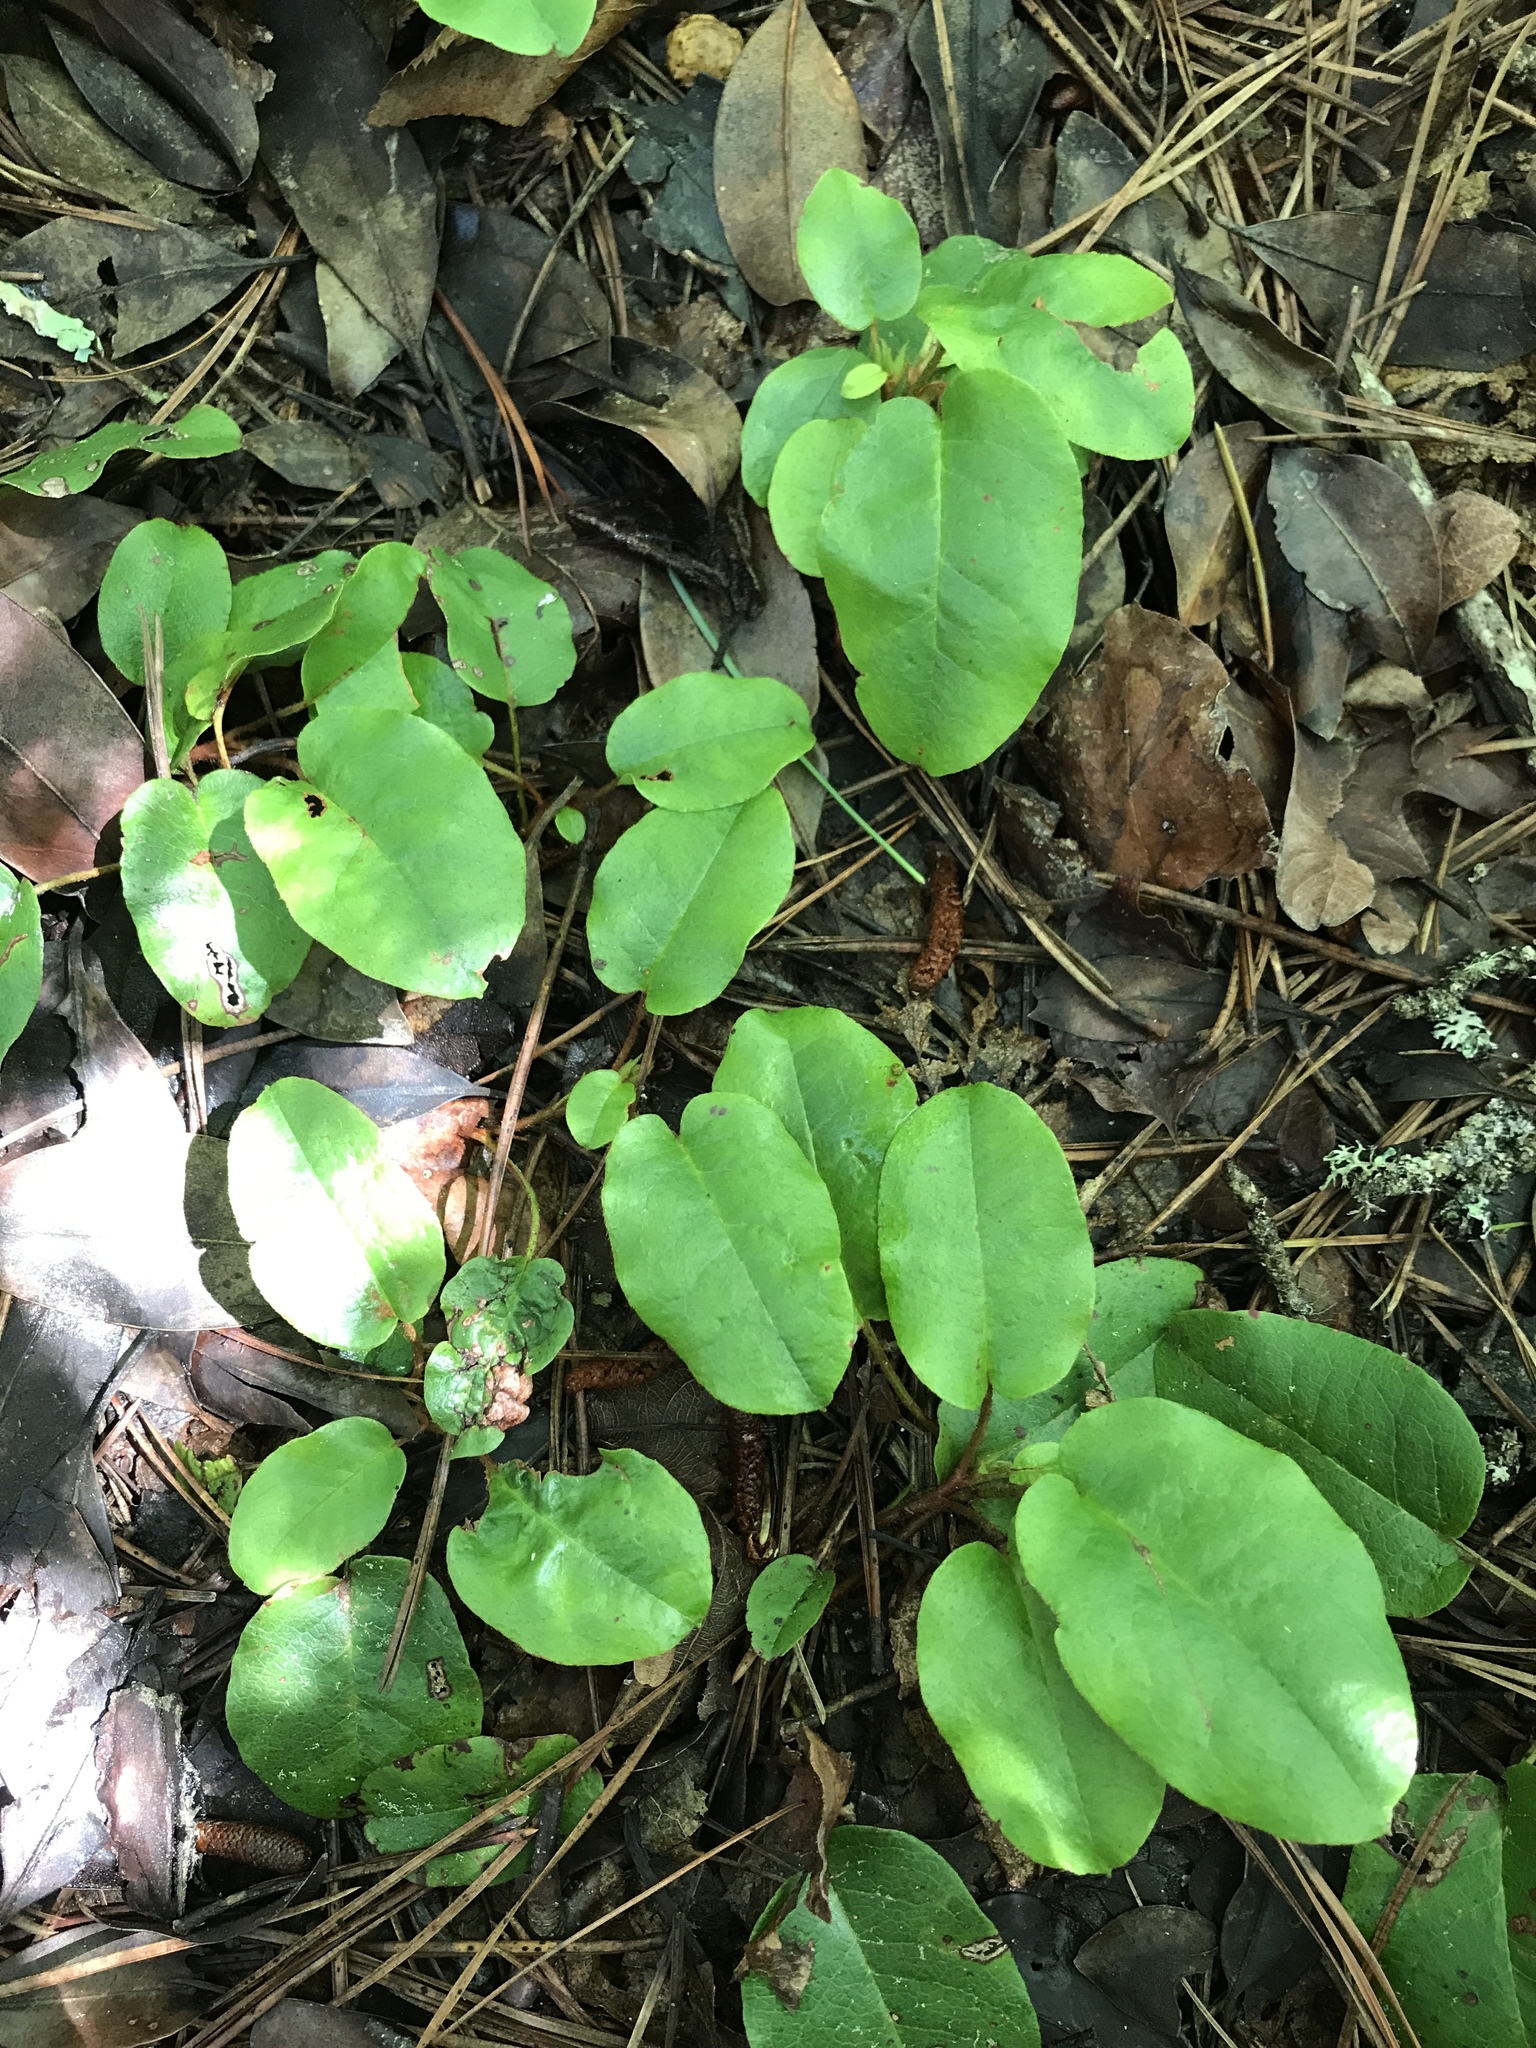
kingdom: Plantae
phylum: Tracheophyta
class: Magnoliopsida
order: Ericales
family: Ericaceae
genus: Epigaea
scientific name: Epigaea repens
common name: Gravelroot
